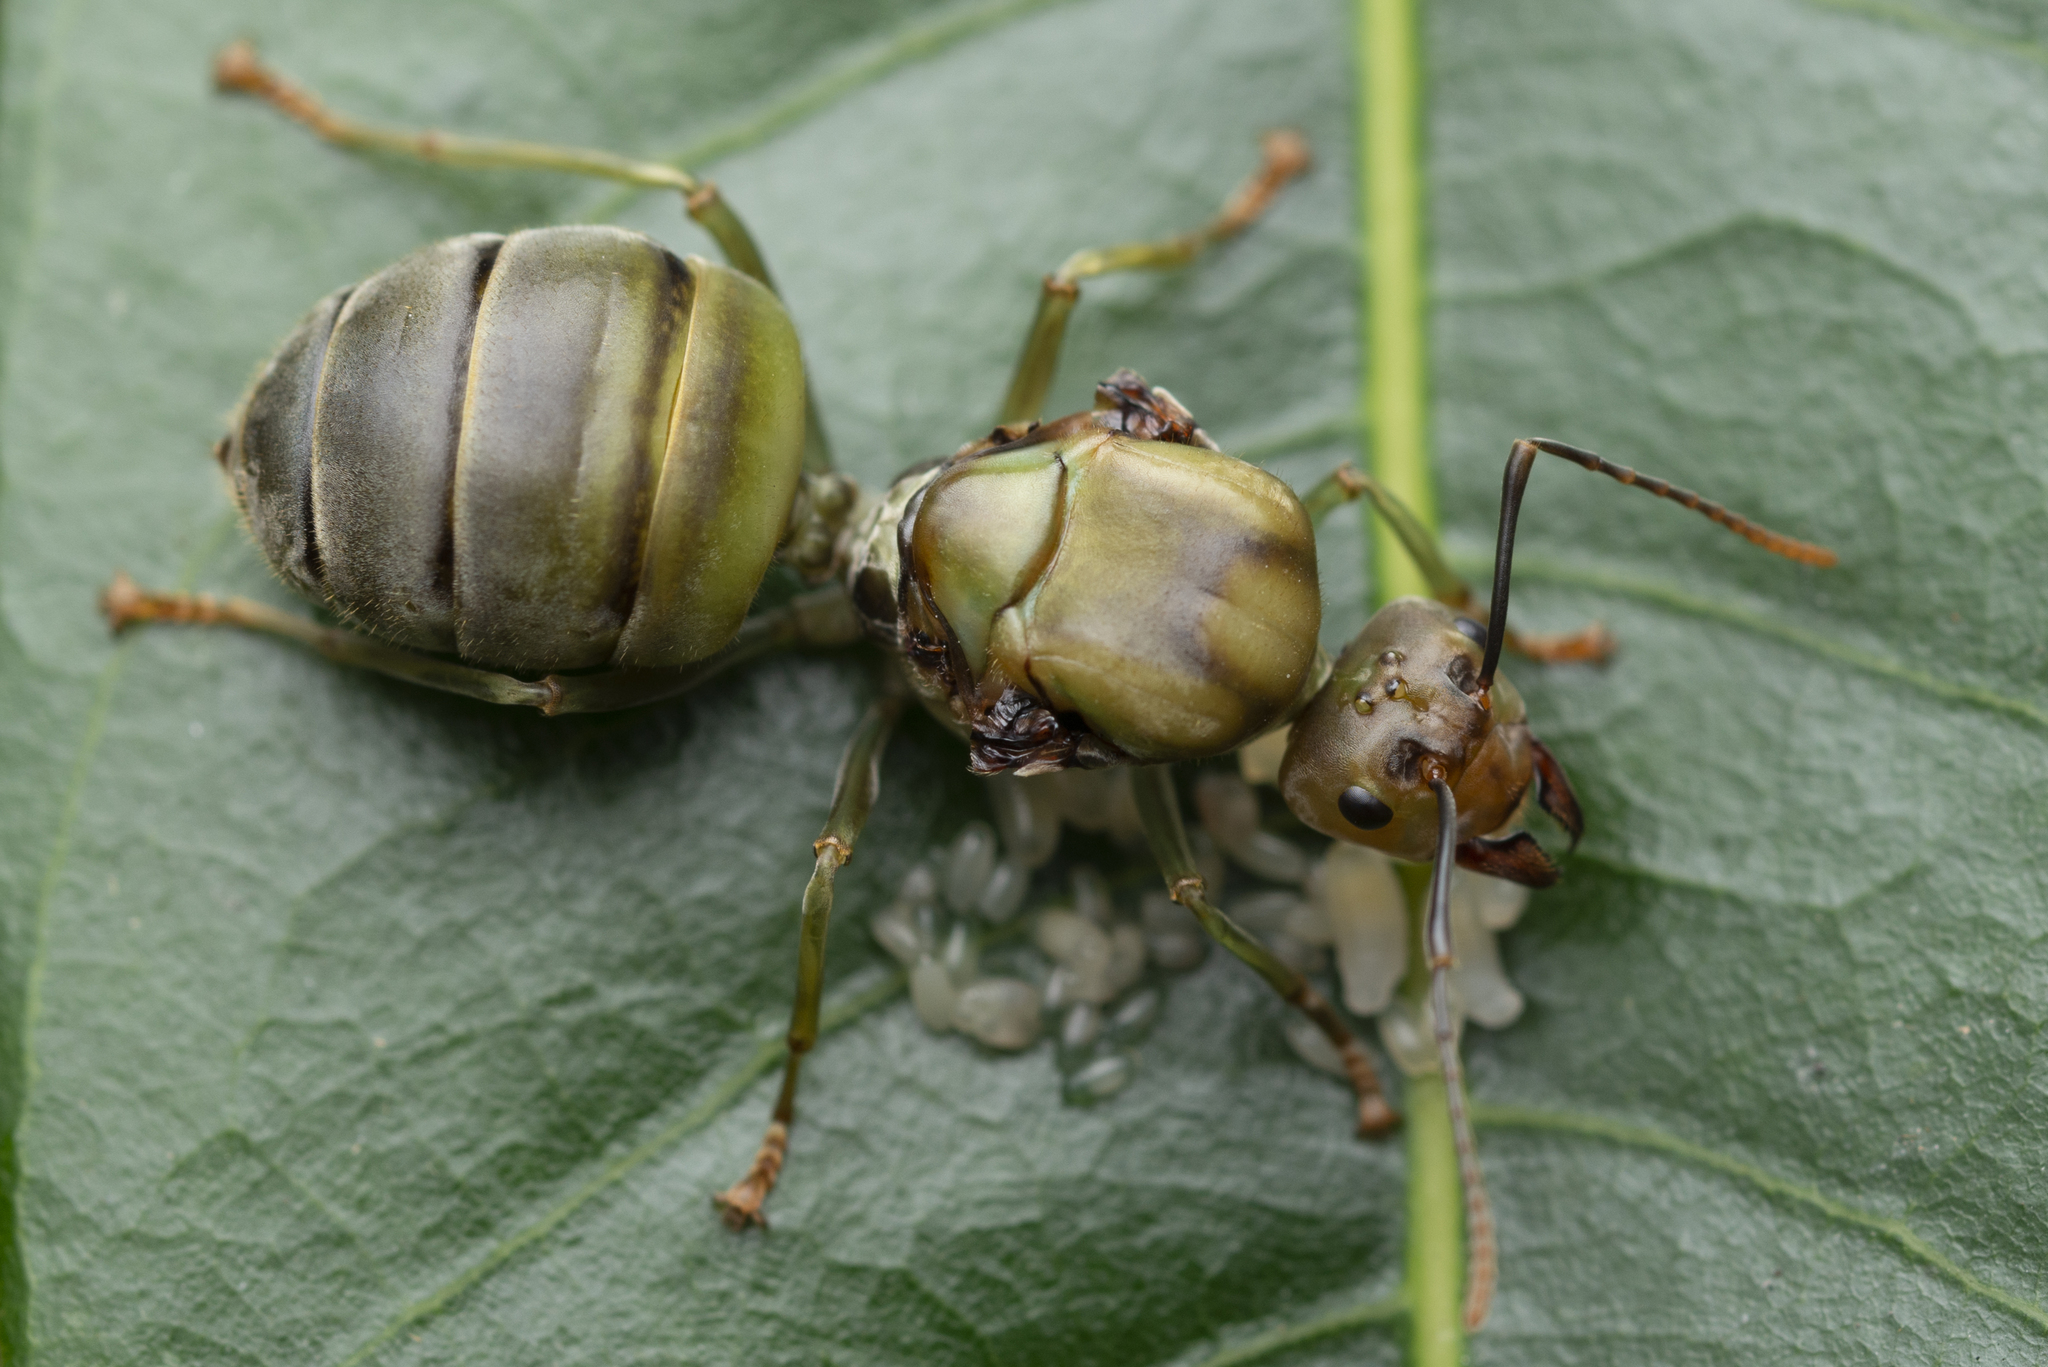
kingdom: Animalia
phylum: Arthropoda
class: Insecta
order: Hymenoptera
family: Formicidae
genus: Oecophylla
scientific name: Oecophylla smaragdina
